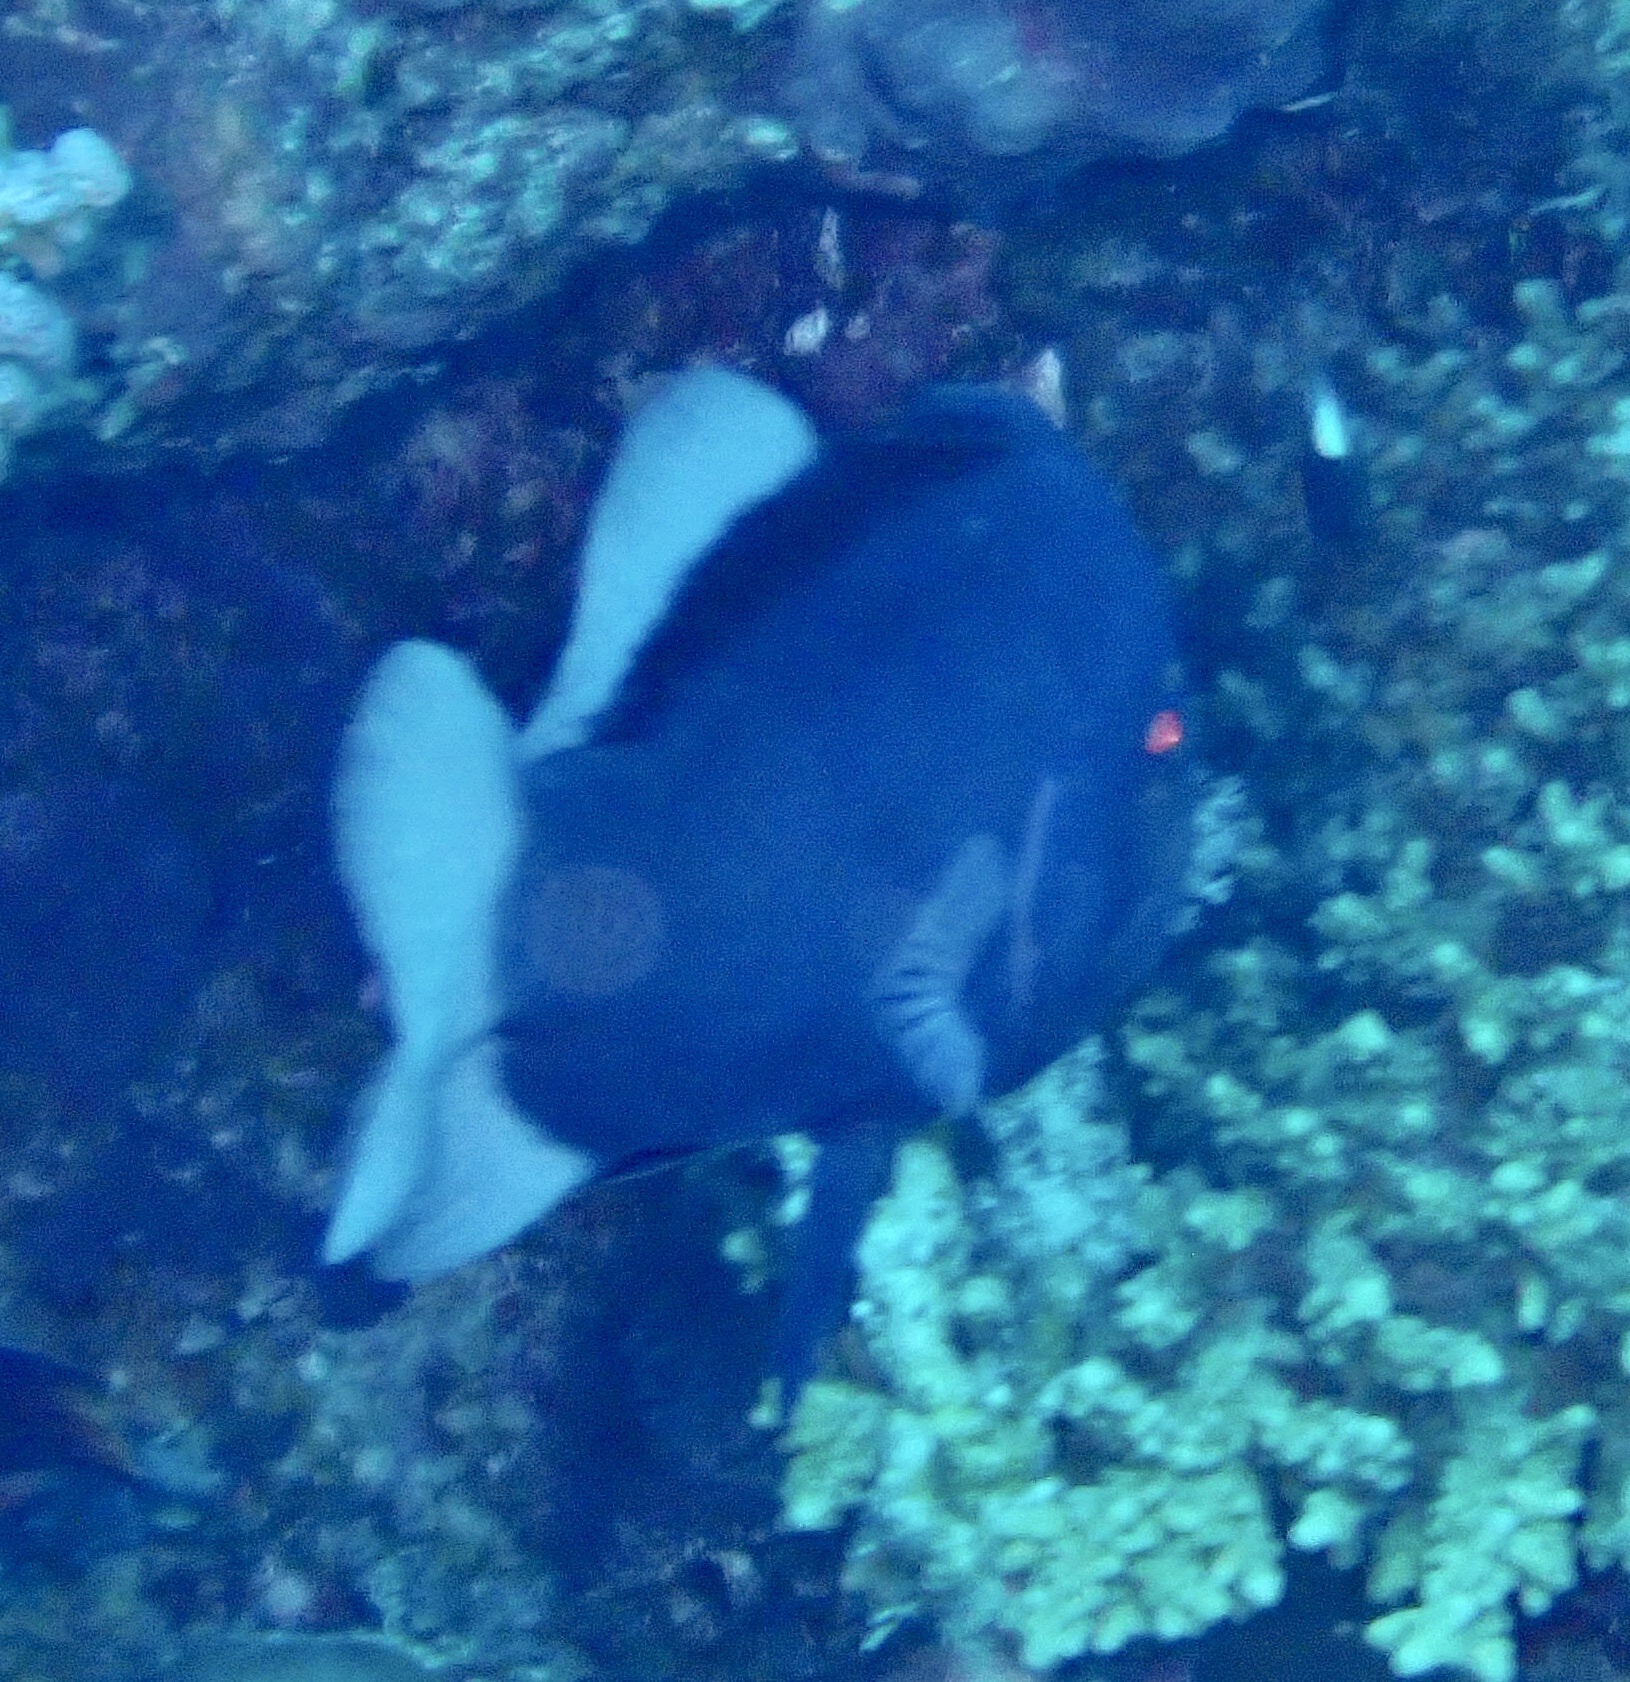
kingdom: Animalia
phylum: Chordata
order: Perciformes
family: Serranidae
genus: Diploprion
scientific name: Diploprion drachi
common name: Yellowface soapfish
